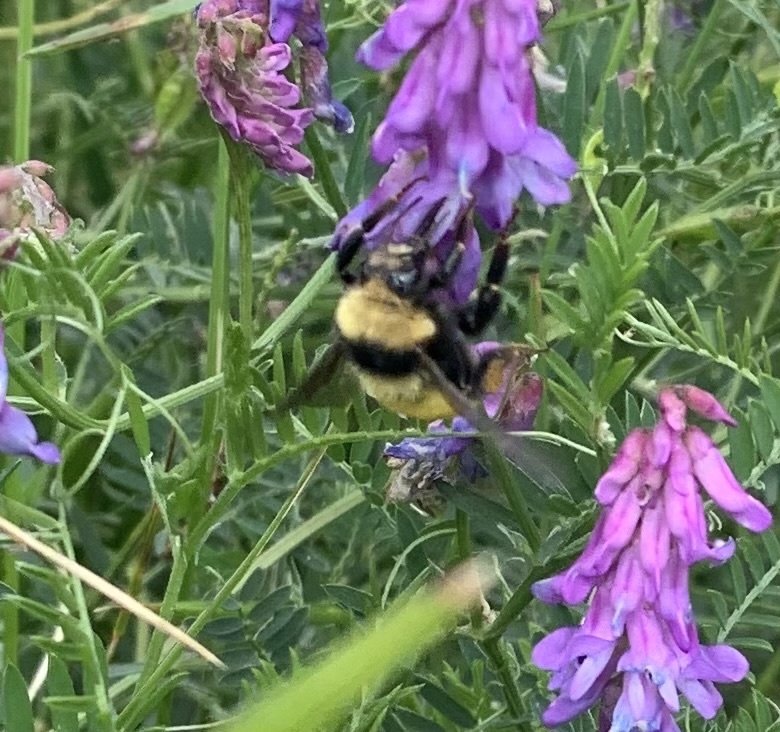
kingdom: Animalia
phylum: Arthropoda
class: Insecta
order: Hymenoptera
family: Apidae
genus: Bombus
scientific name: Bombus borealis
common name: Northern amber bumble bee
